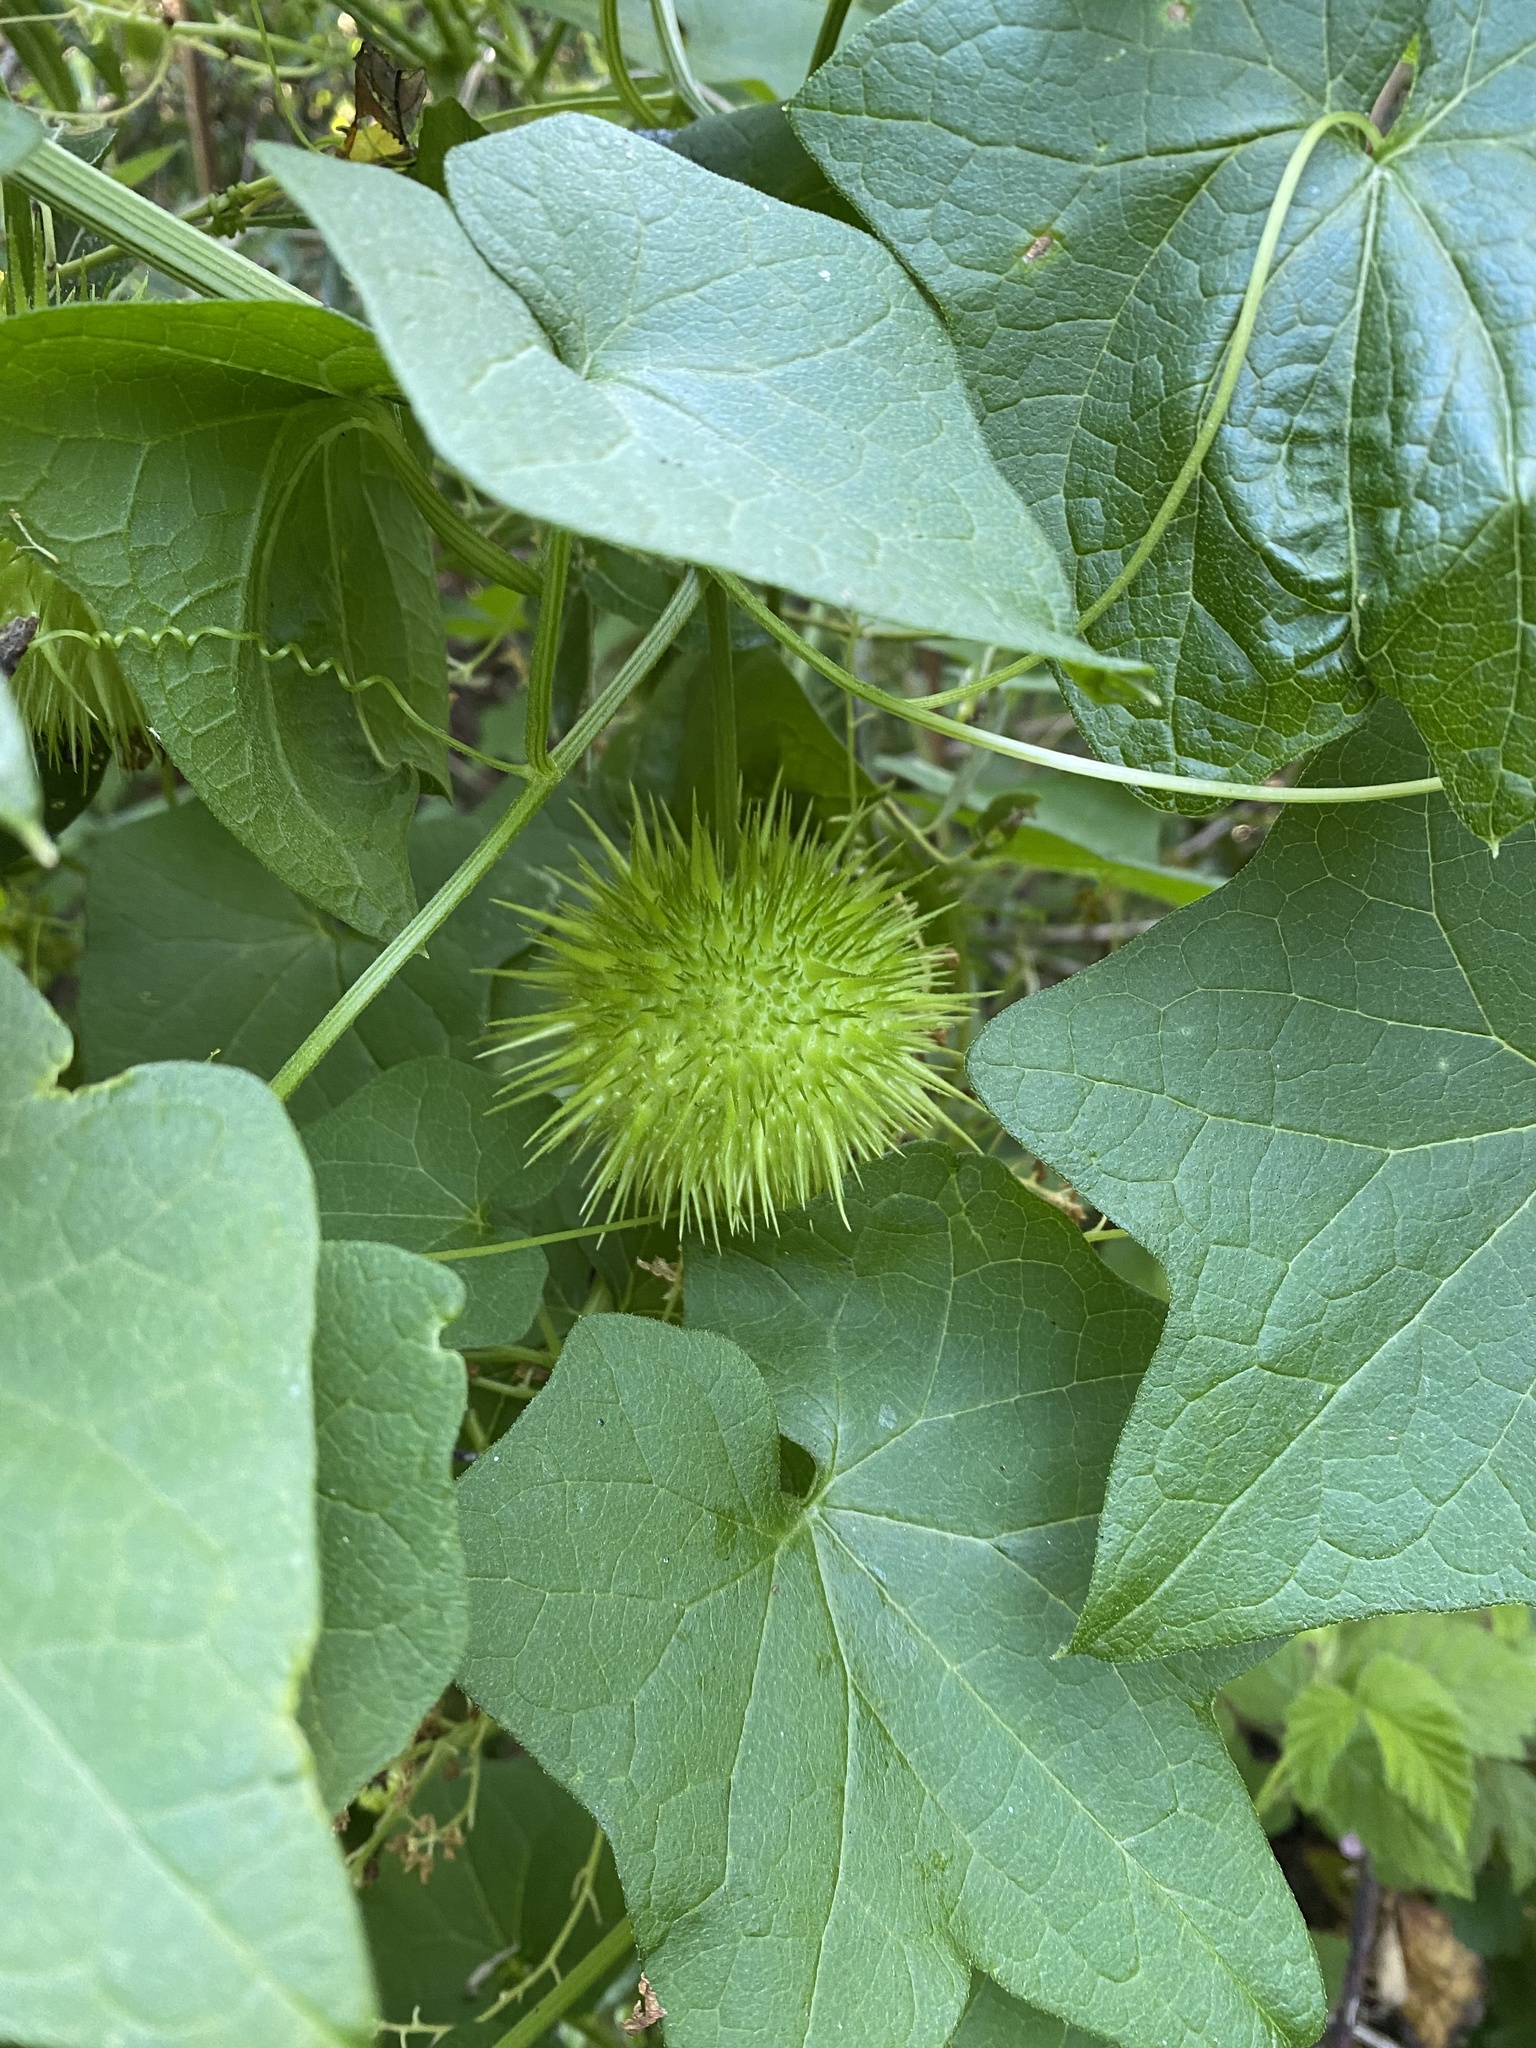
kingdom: Plantae
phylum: Tracheophyta
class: Magnoliopsida
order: Cucurbitales
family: Cucurbitaceae
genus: Marah
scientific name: Marah fabacea
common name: California manroot
